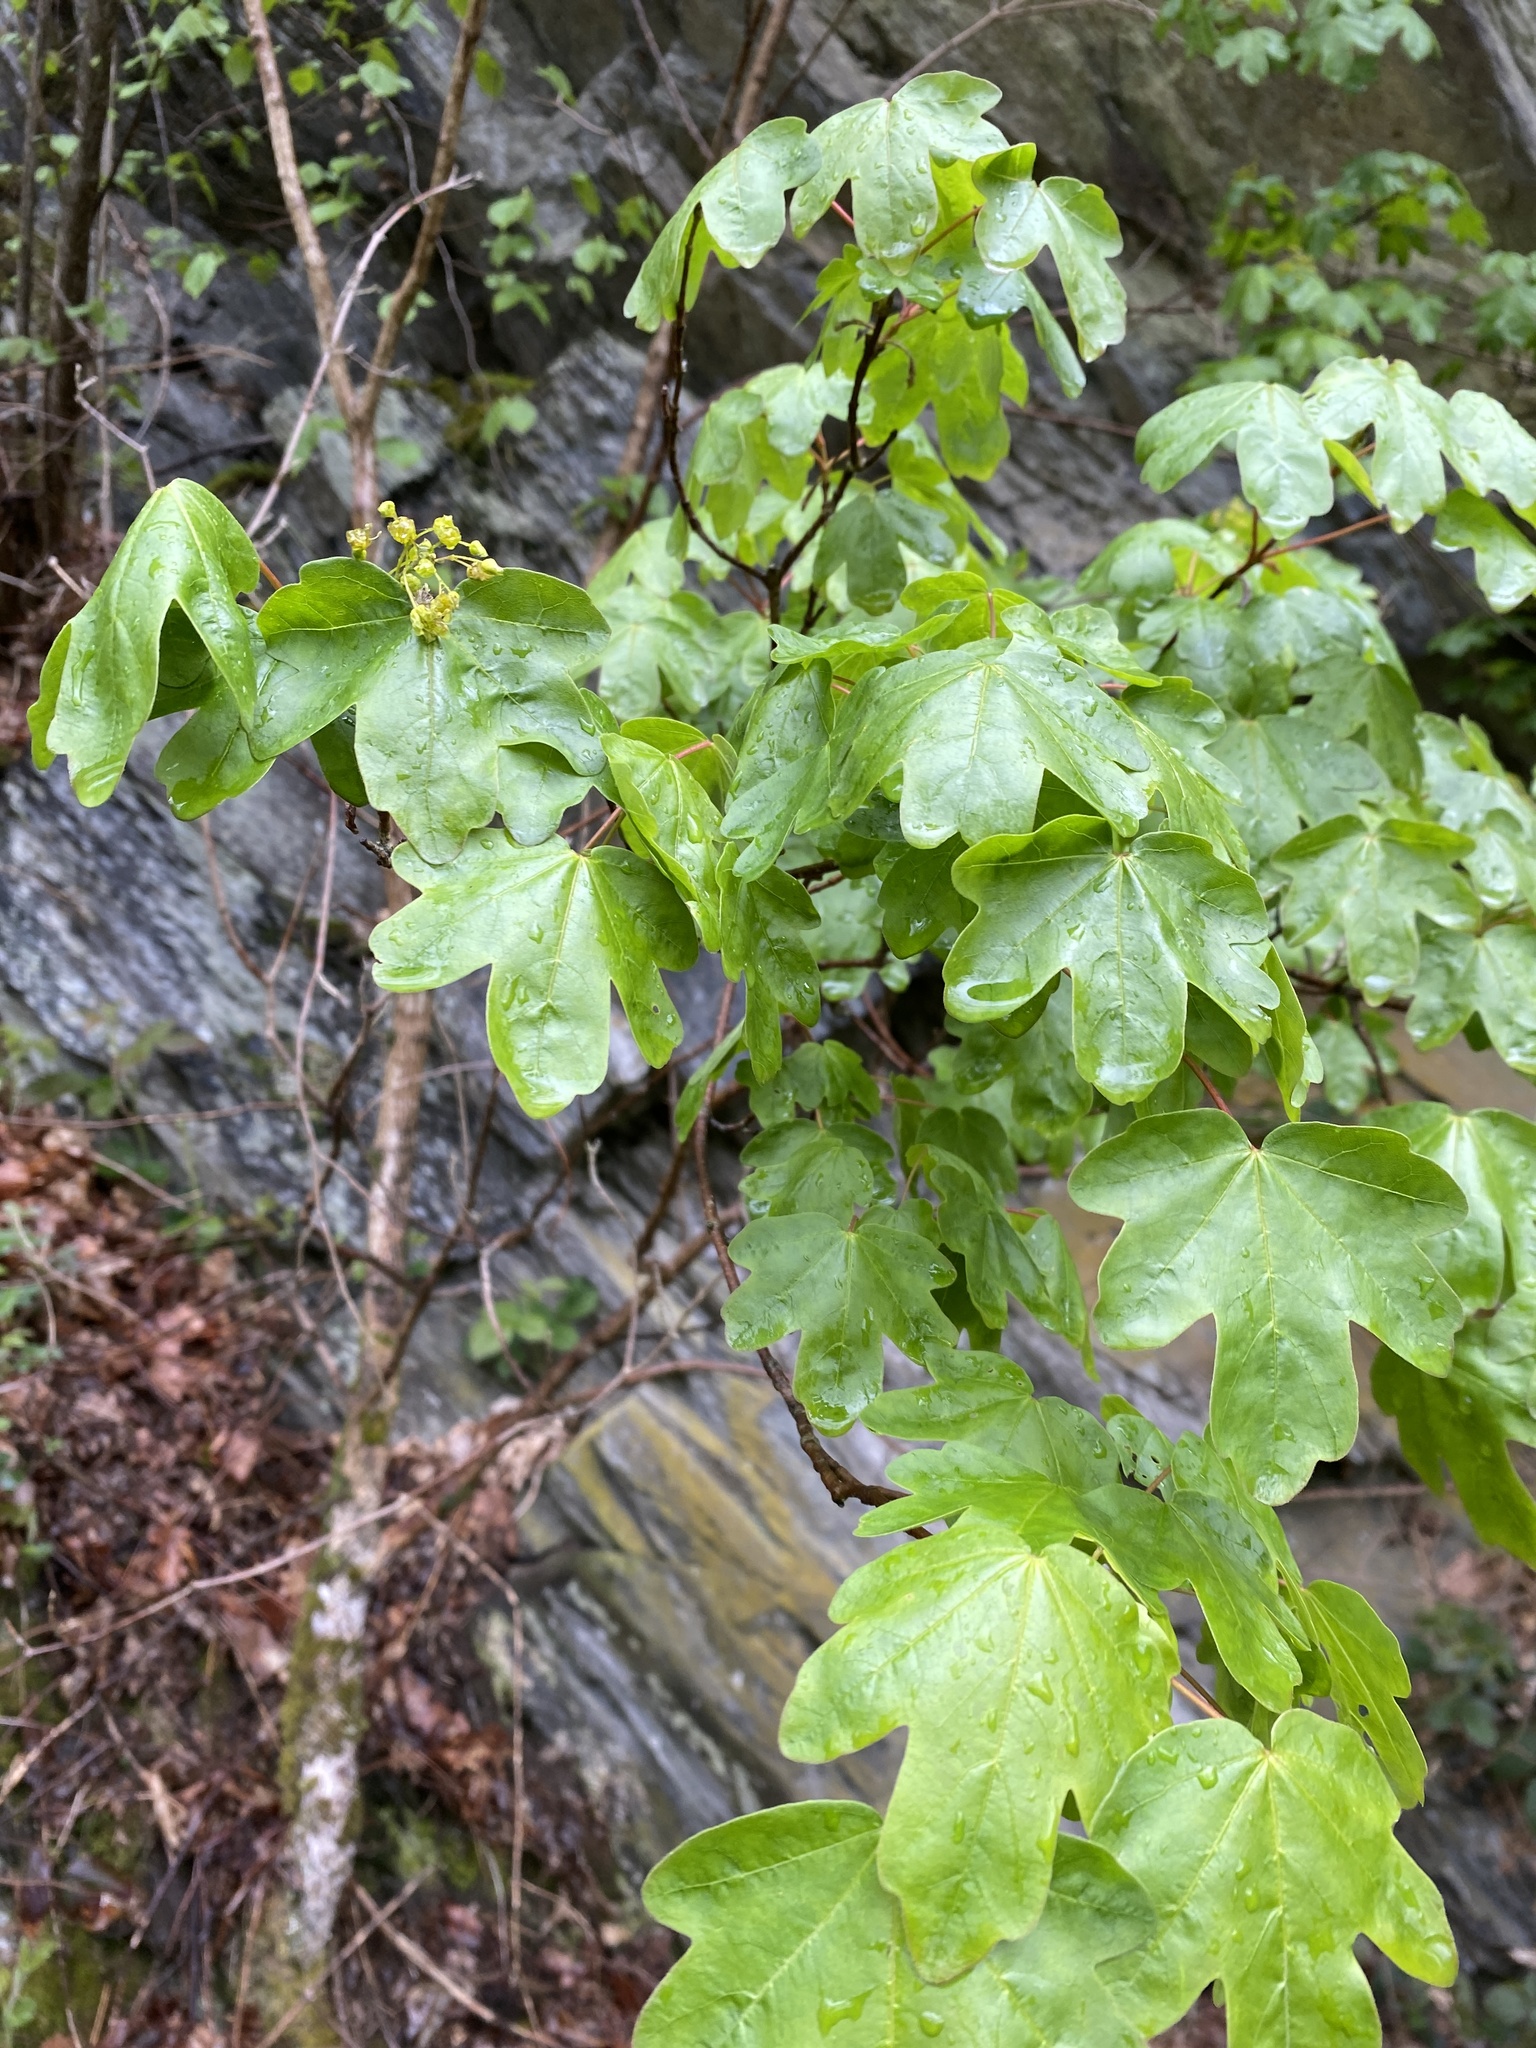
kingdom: Plantae
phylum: Tracheophyta
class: Magnoliopsida
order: Sapindales
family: Sapindaceae
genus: Acer
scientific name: Acer campestre
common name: Field maple
